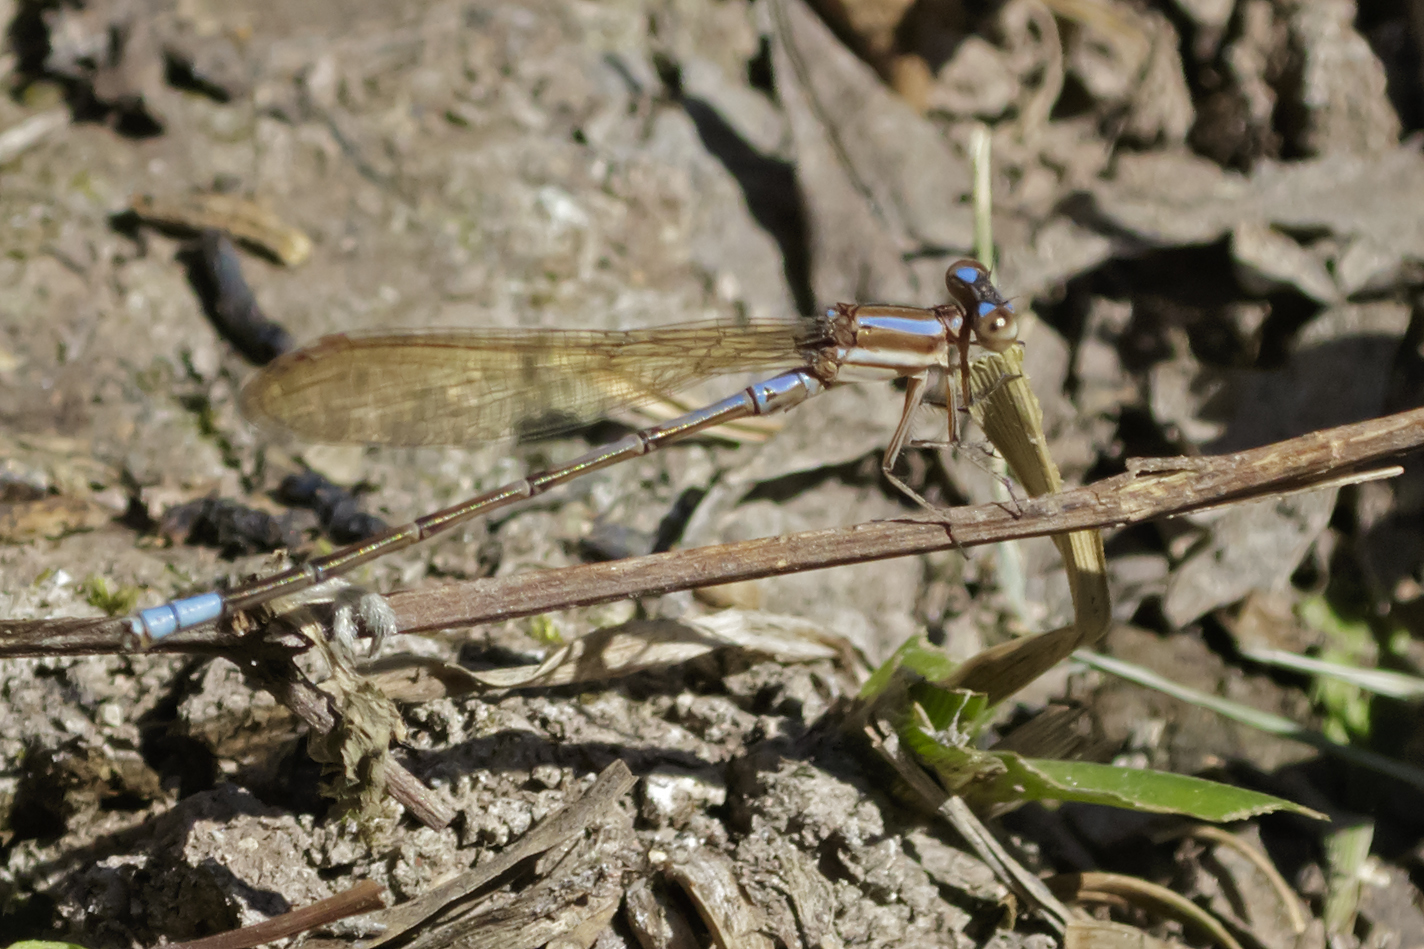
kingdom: Animalia
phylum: Arthropoda
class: Insecta
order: Odonata
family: Coenagrionidae
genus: Argia
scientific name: Argia jujuya
